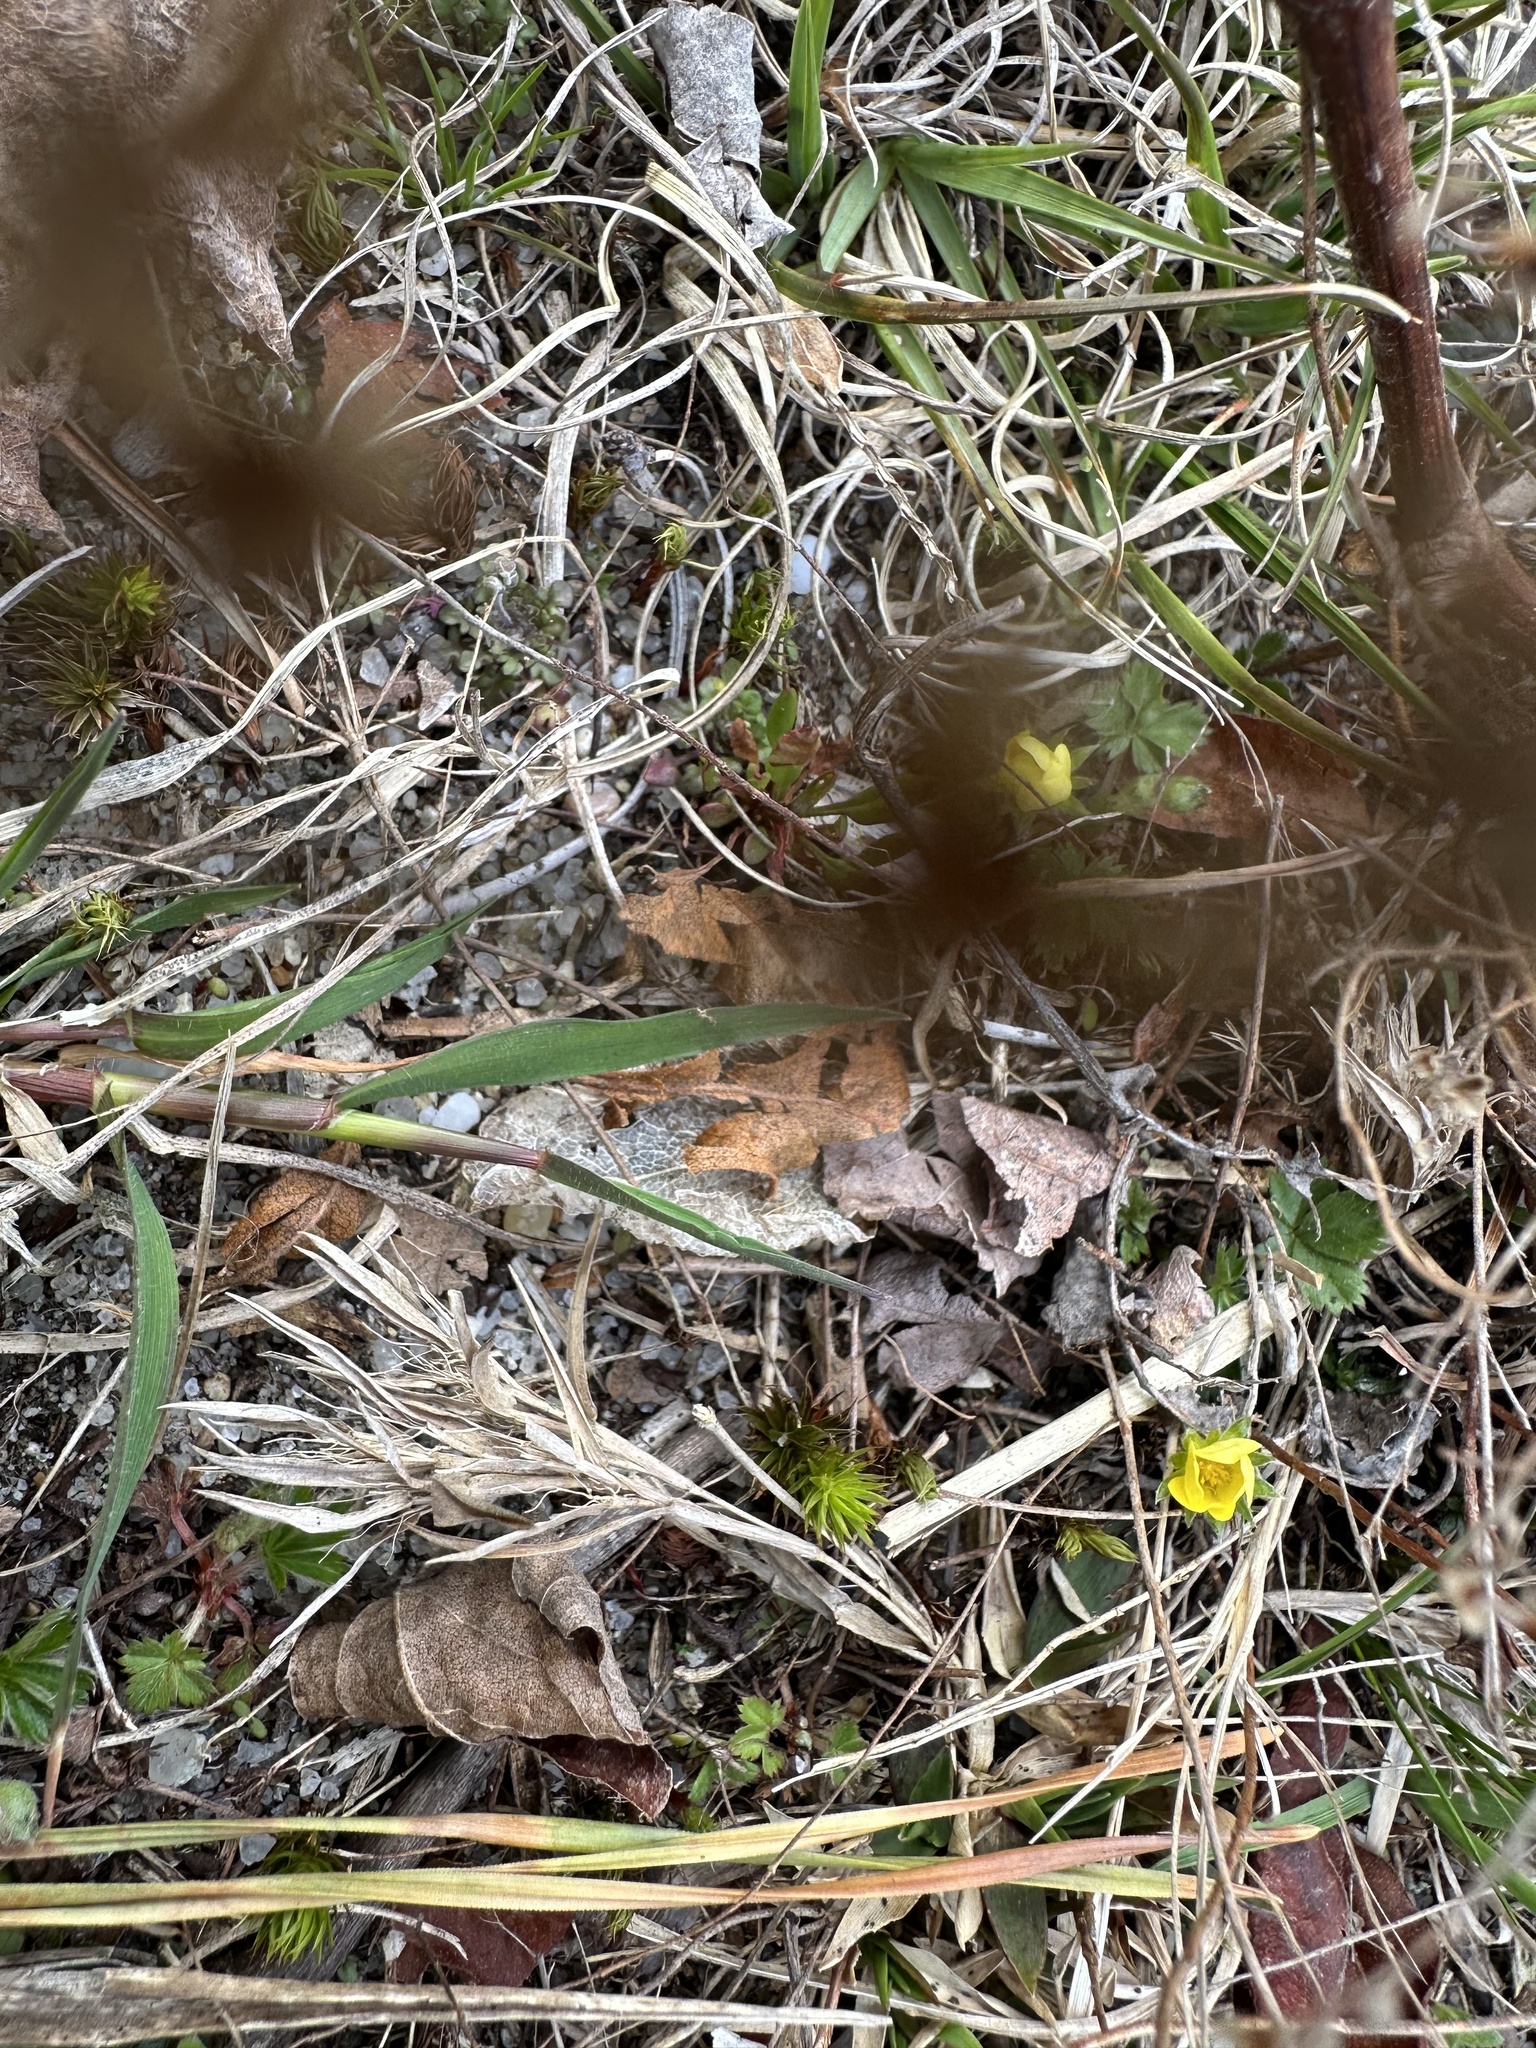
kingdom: Plantae
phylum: Tracheophyta
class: Magnoliopsida
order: Rosales
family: Rosaceae
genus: Potentilla
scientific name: Potentilla canadensis
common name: Canada cinquefoil
